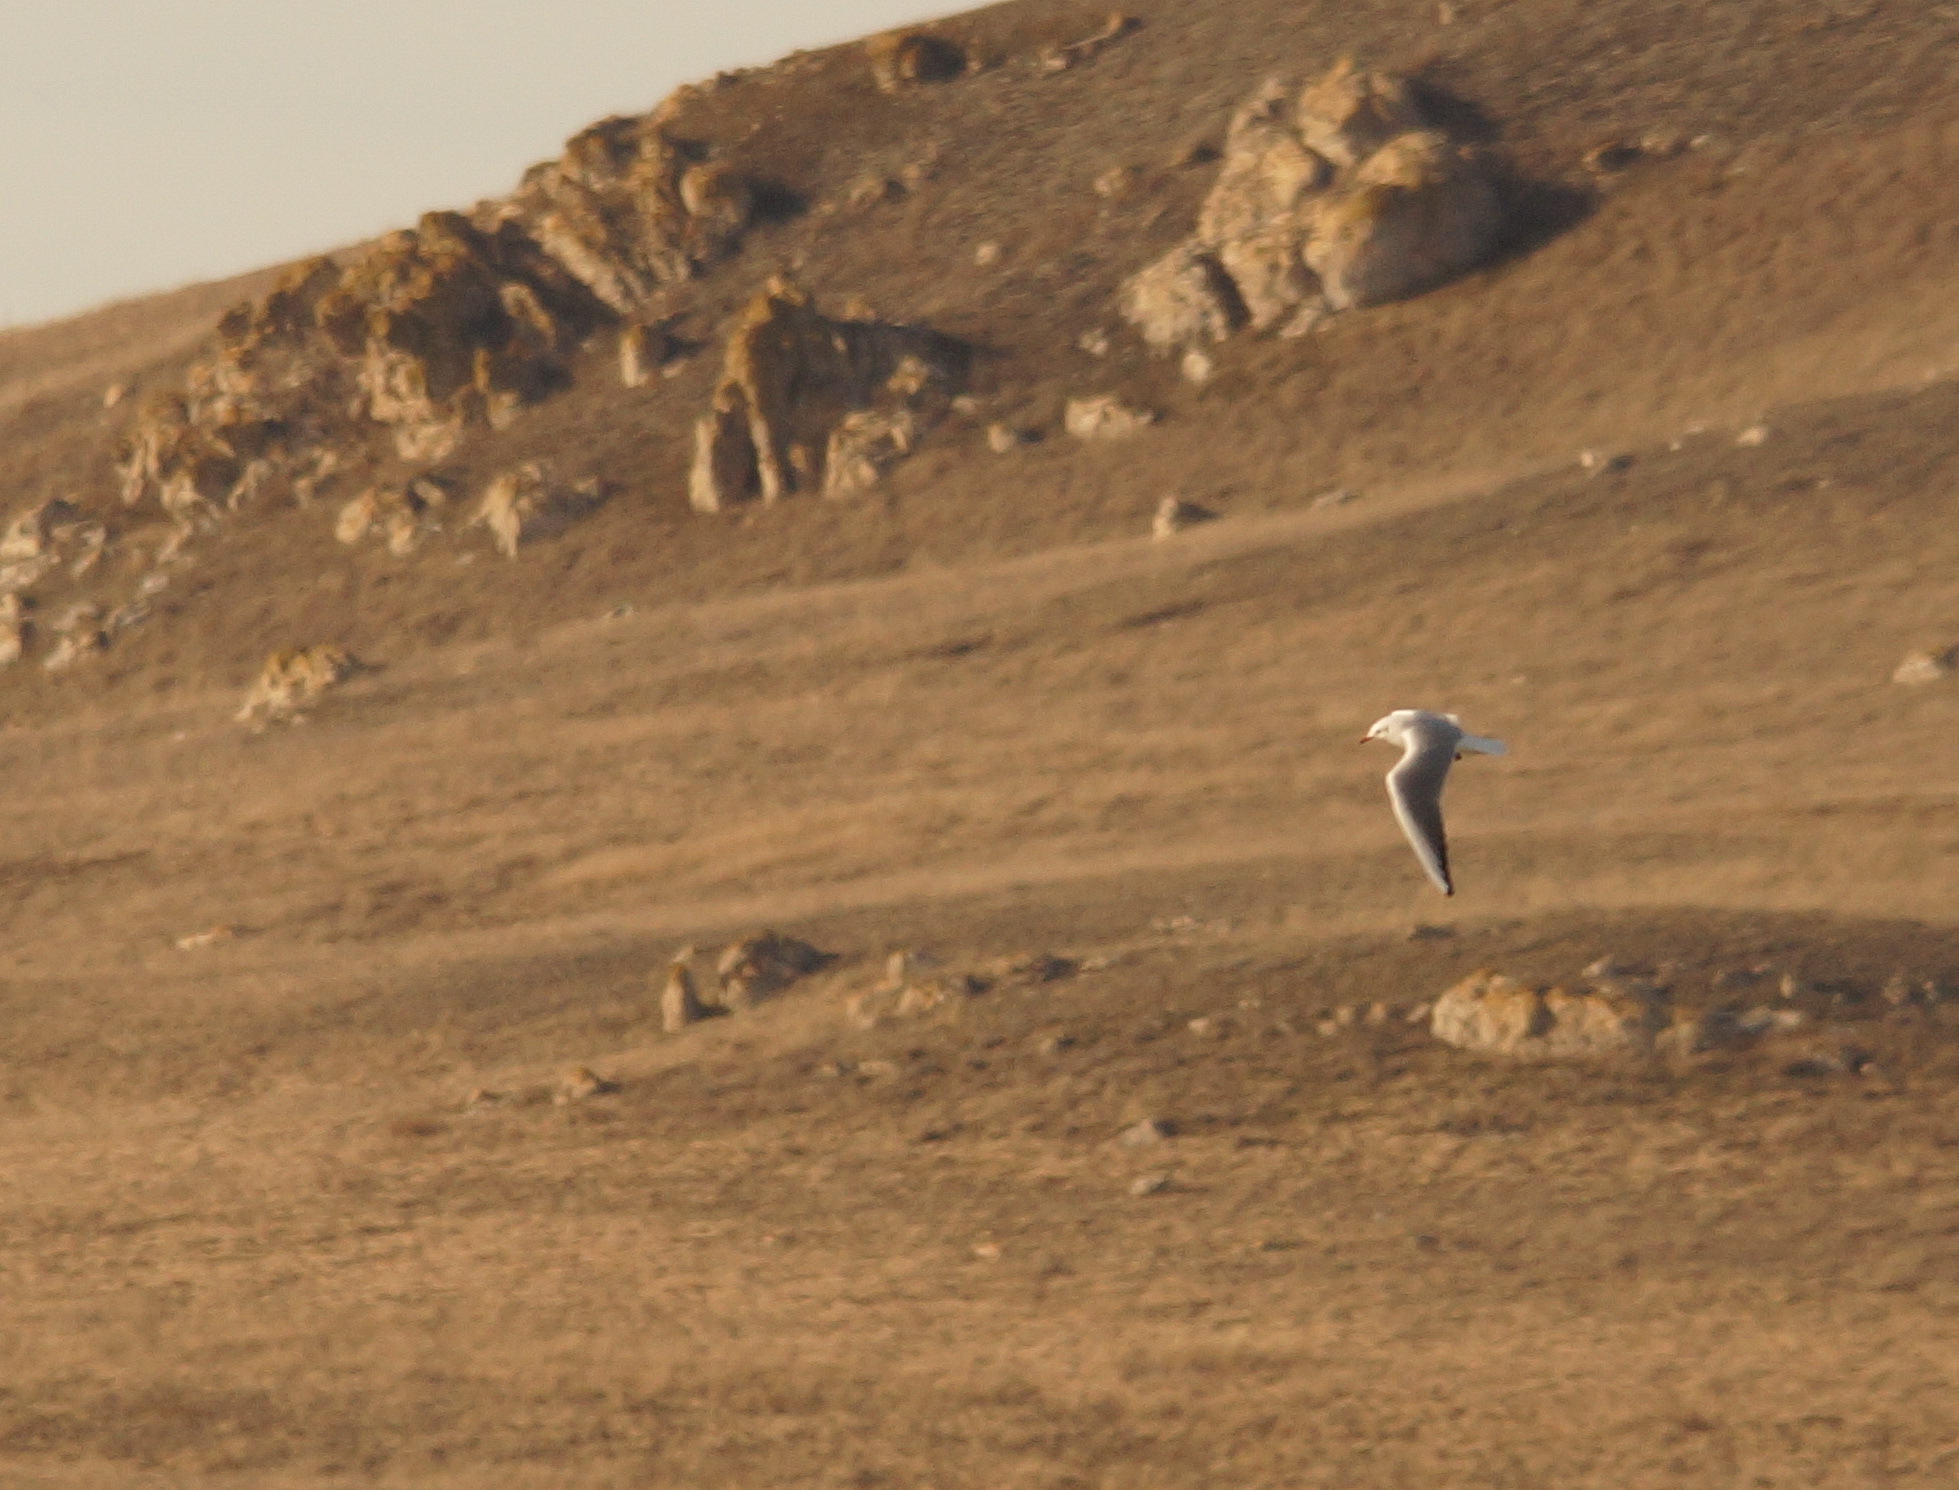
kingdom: Animalia
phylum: Chordata
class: Aves
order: Charadriiformes
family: Laridae
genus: Chroicocephalus
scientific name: Chroicocephalus ridibundus
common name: Black-headed gull
